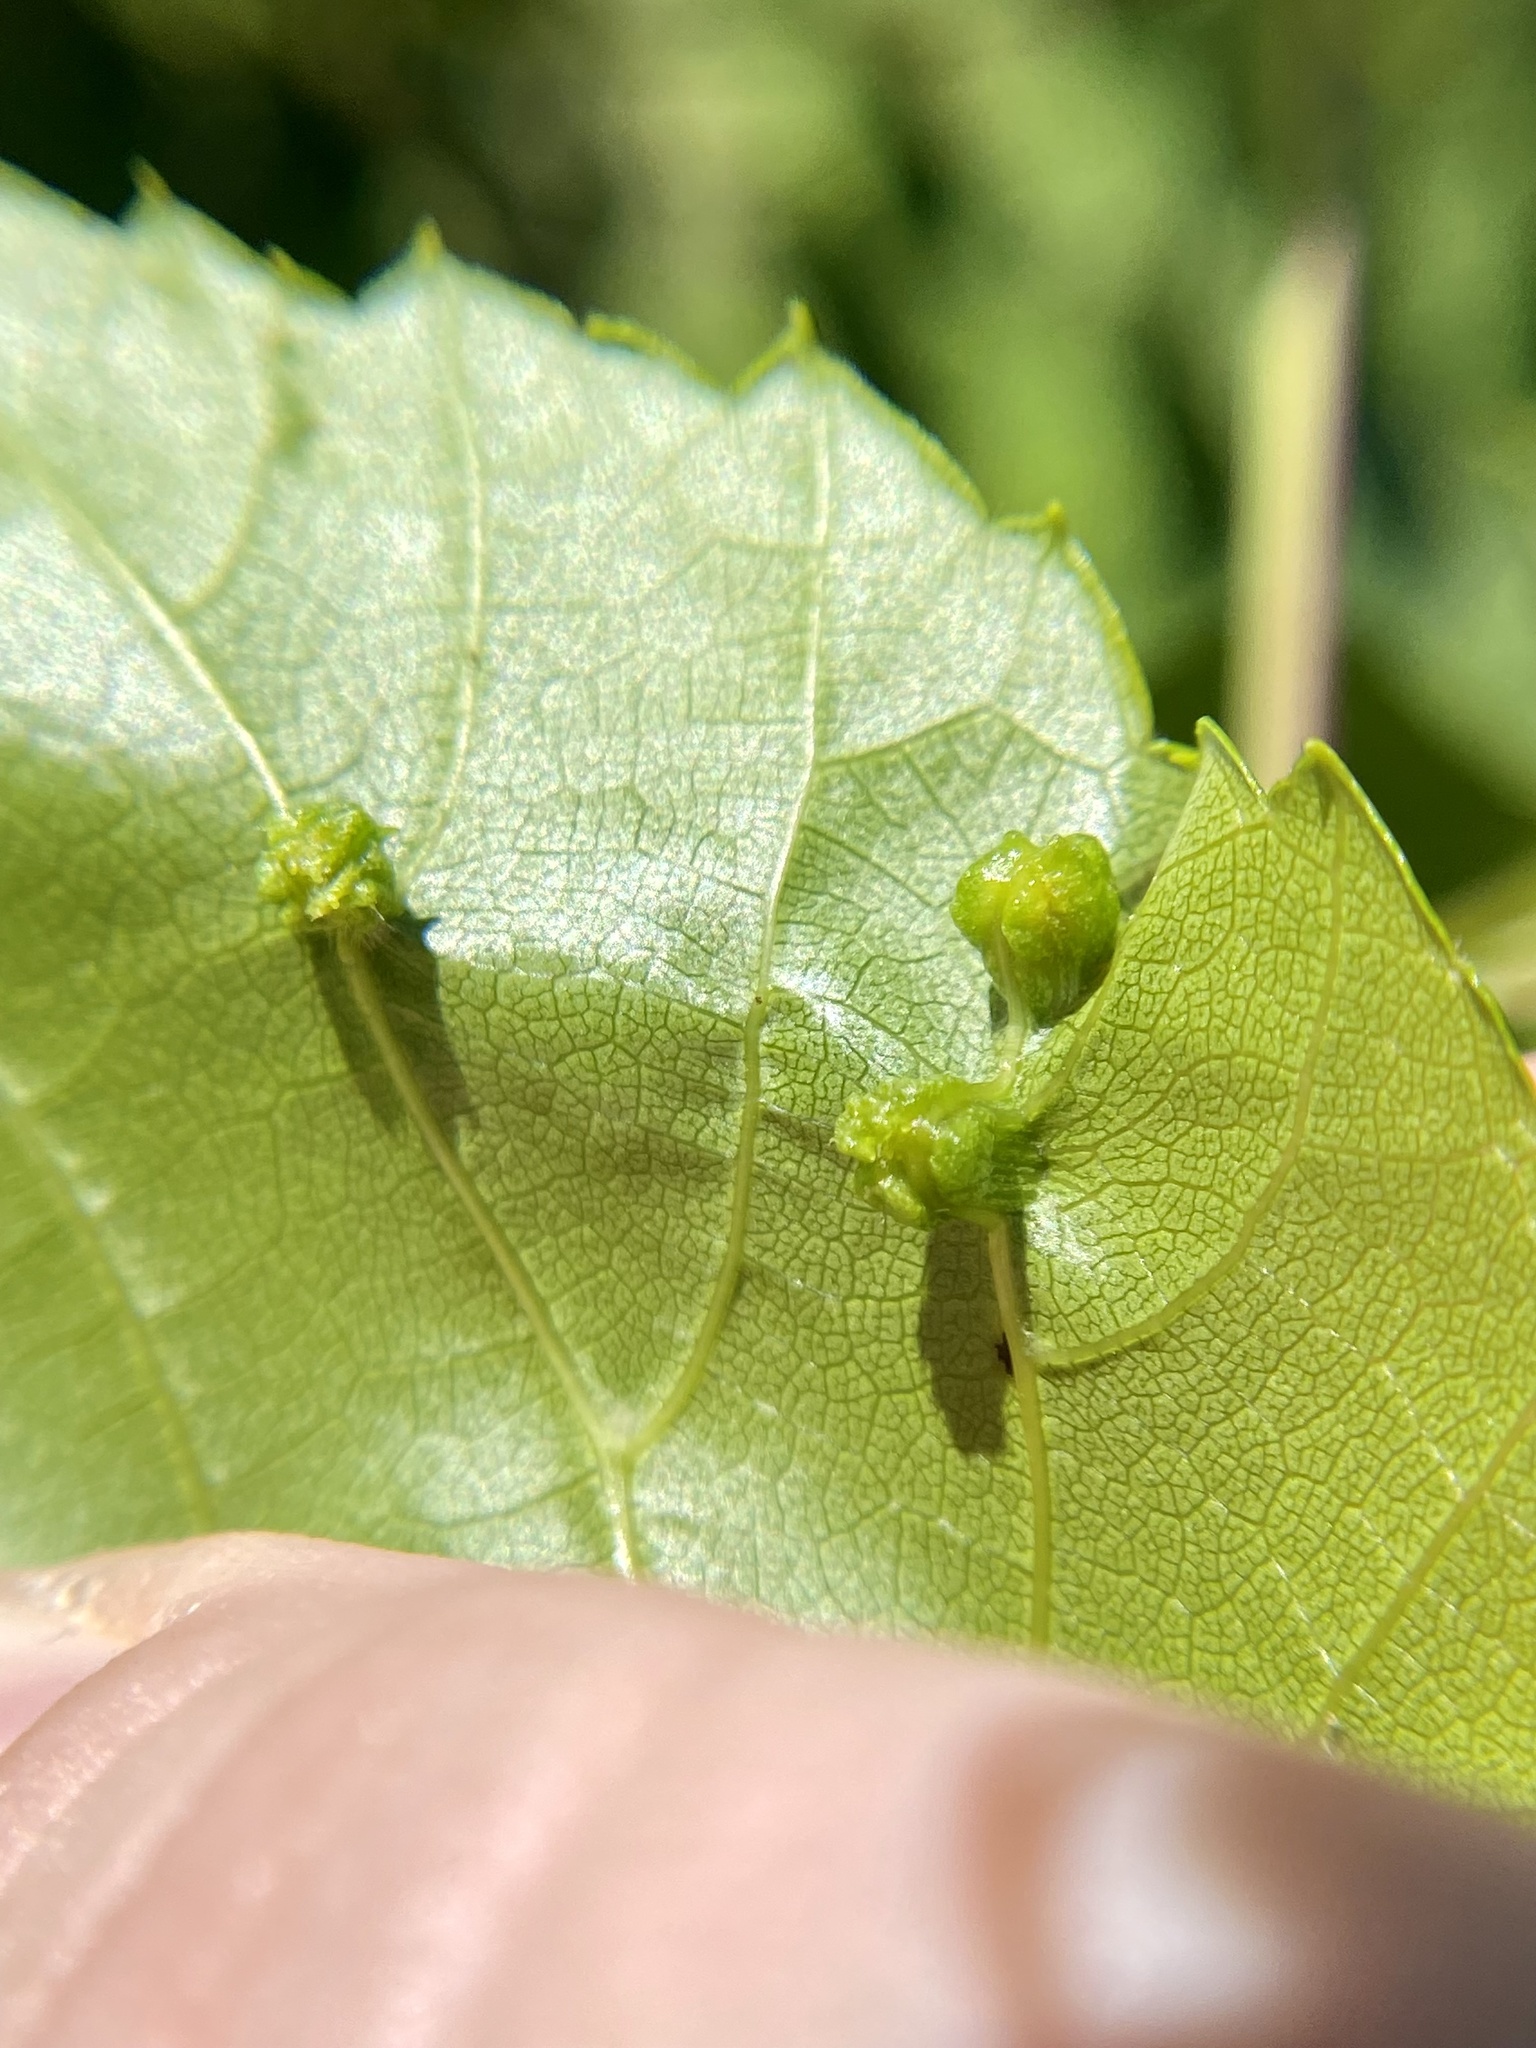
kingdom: Animalia
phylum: Arthropoda
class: Insecta
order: Hemiptera
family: Phylloxeridae
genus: Daktulosphaira
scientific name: Daktulosphaira vitifoliae
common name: Grape phylloxera
